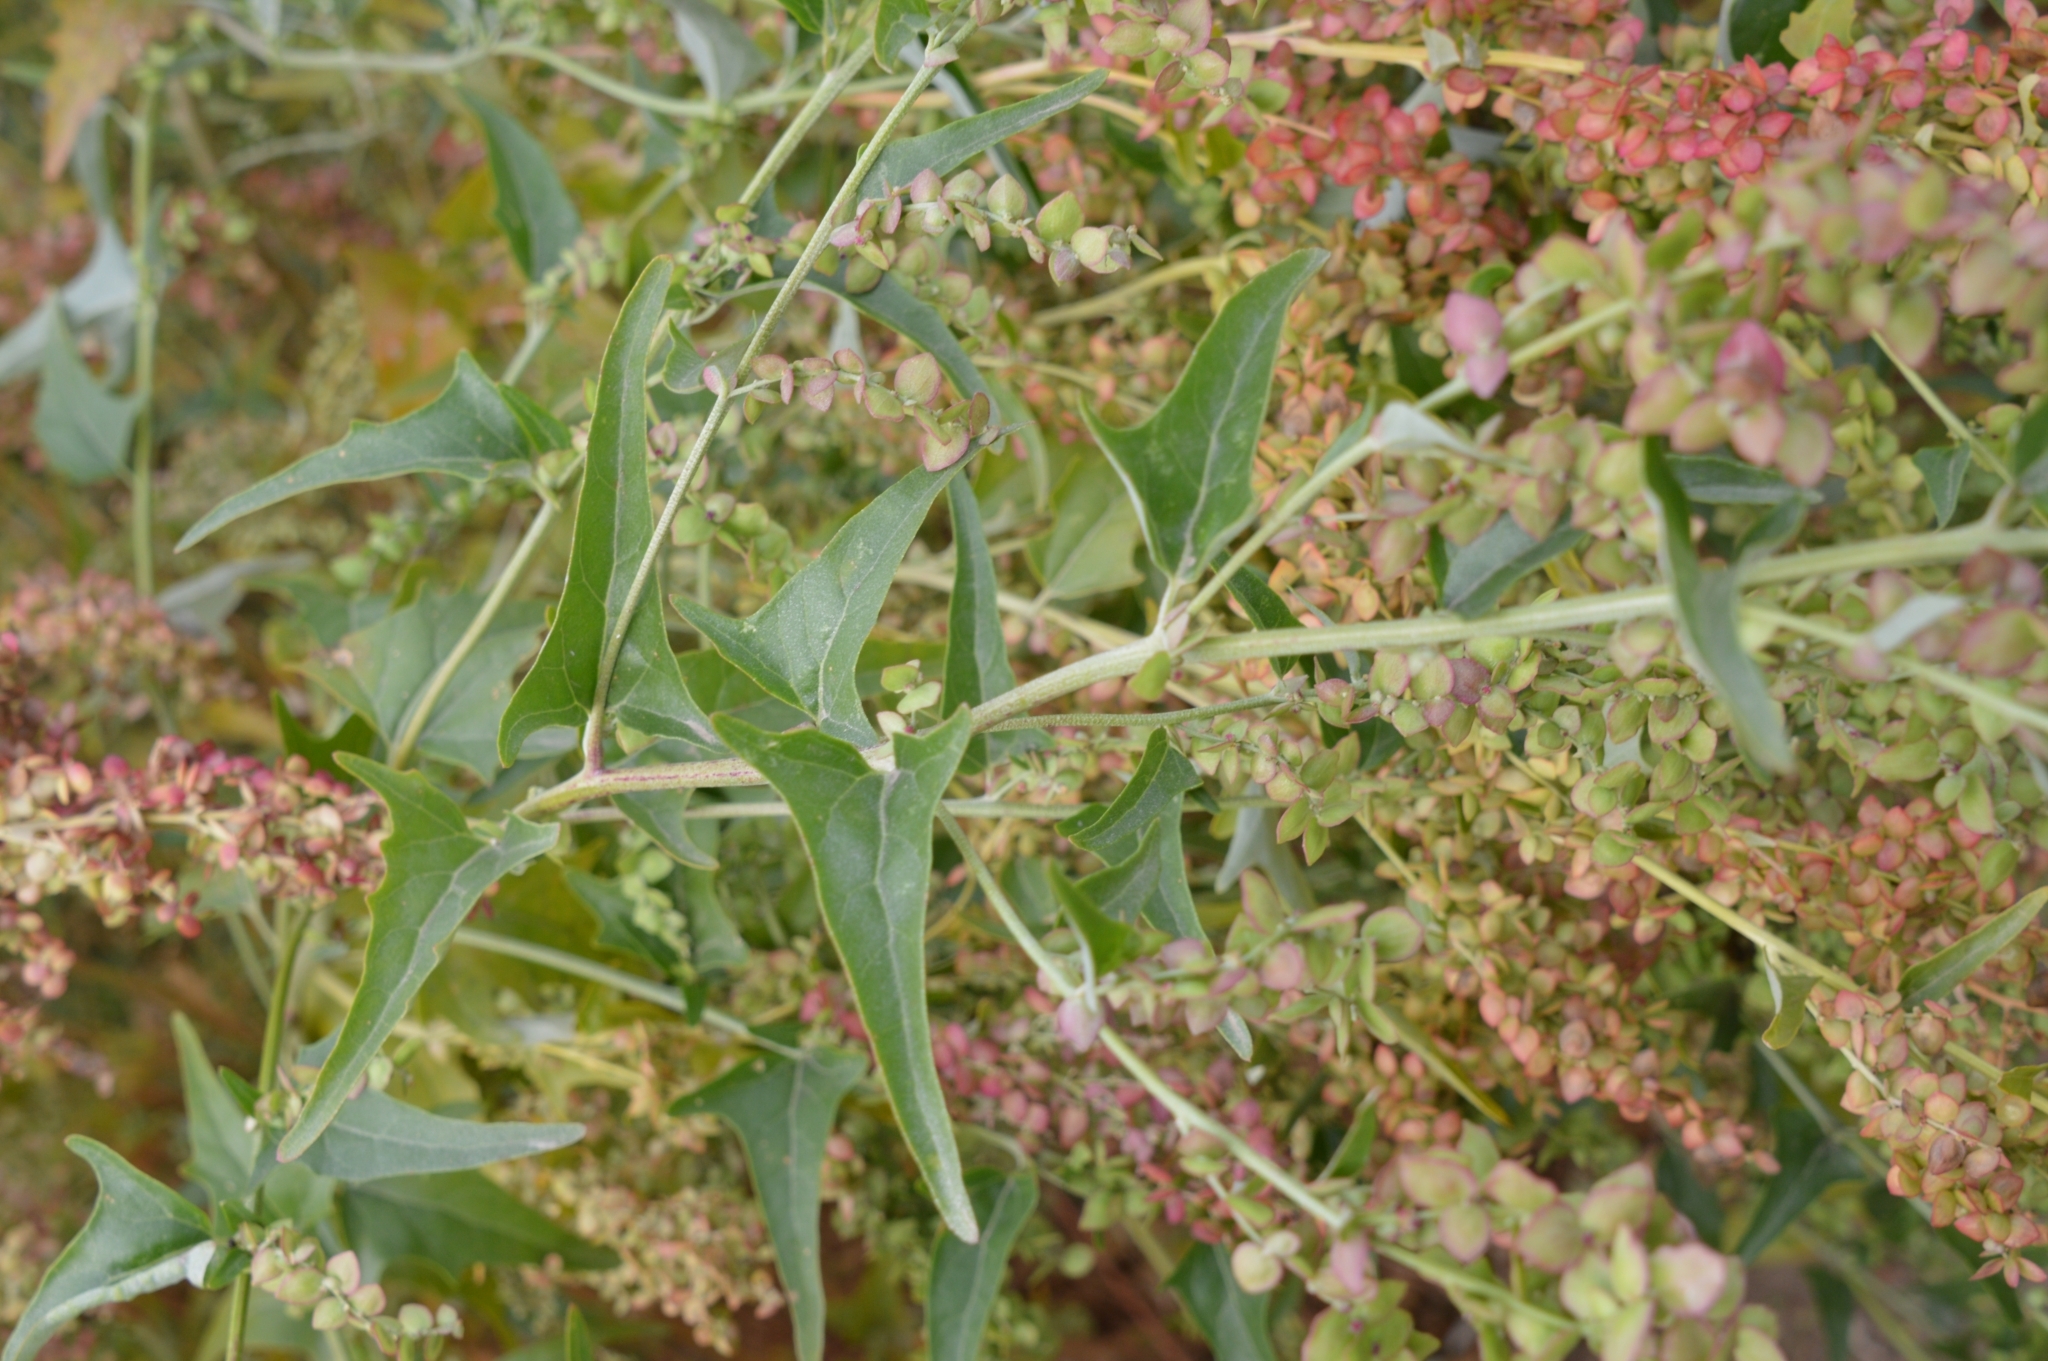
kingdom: Plantae
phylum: Tracheophyta
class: Magnoliopsida
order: Caryophyllales
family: Amaranthaceae
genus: Atriplex
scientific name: Atriplex sagittata
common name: Purple orache
